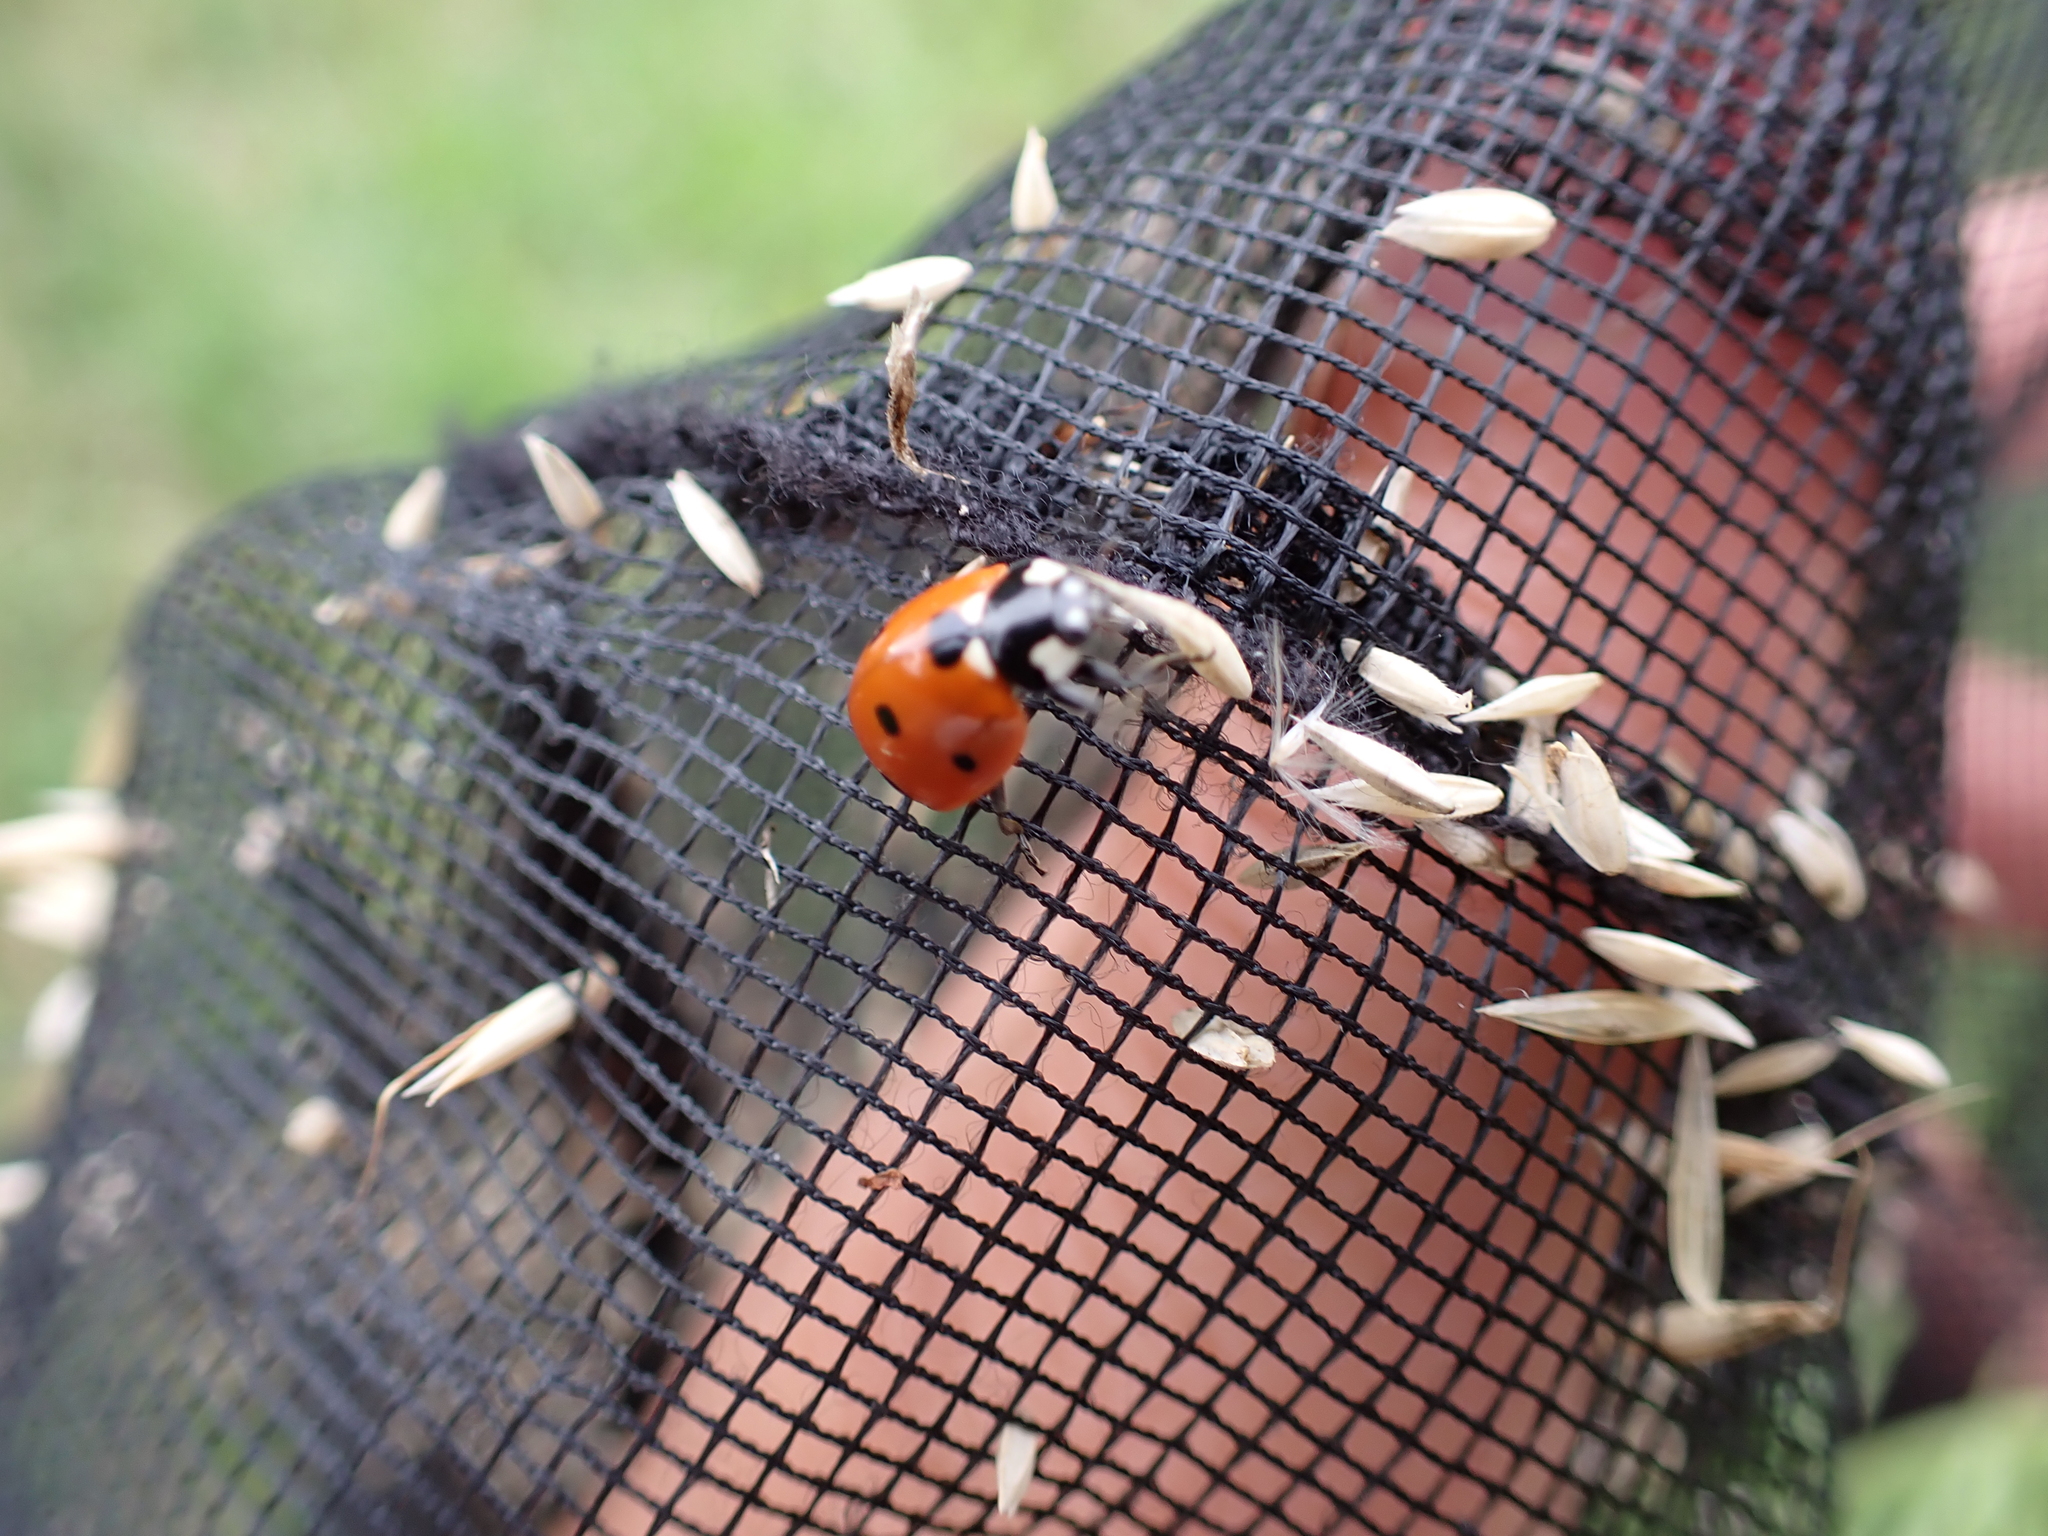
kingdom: Animalia
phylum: Arthropoda
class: Insecta
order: Coleoptera
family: Coccinellidae
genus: Coccinella
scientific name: Coccinella septempunctata
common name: Sevenspotted lady beetle
